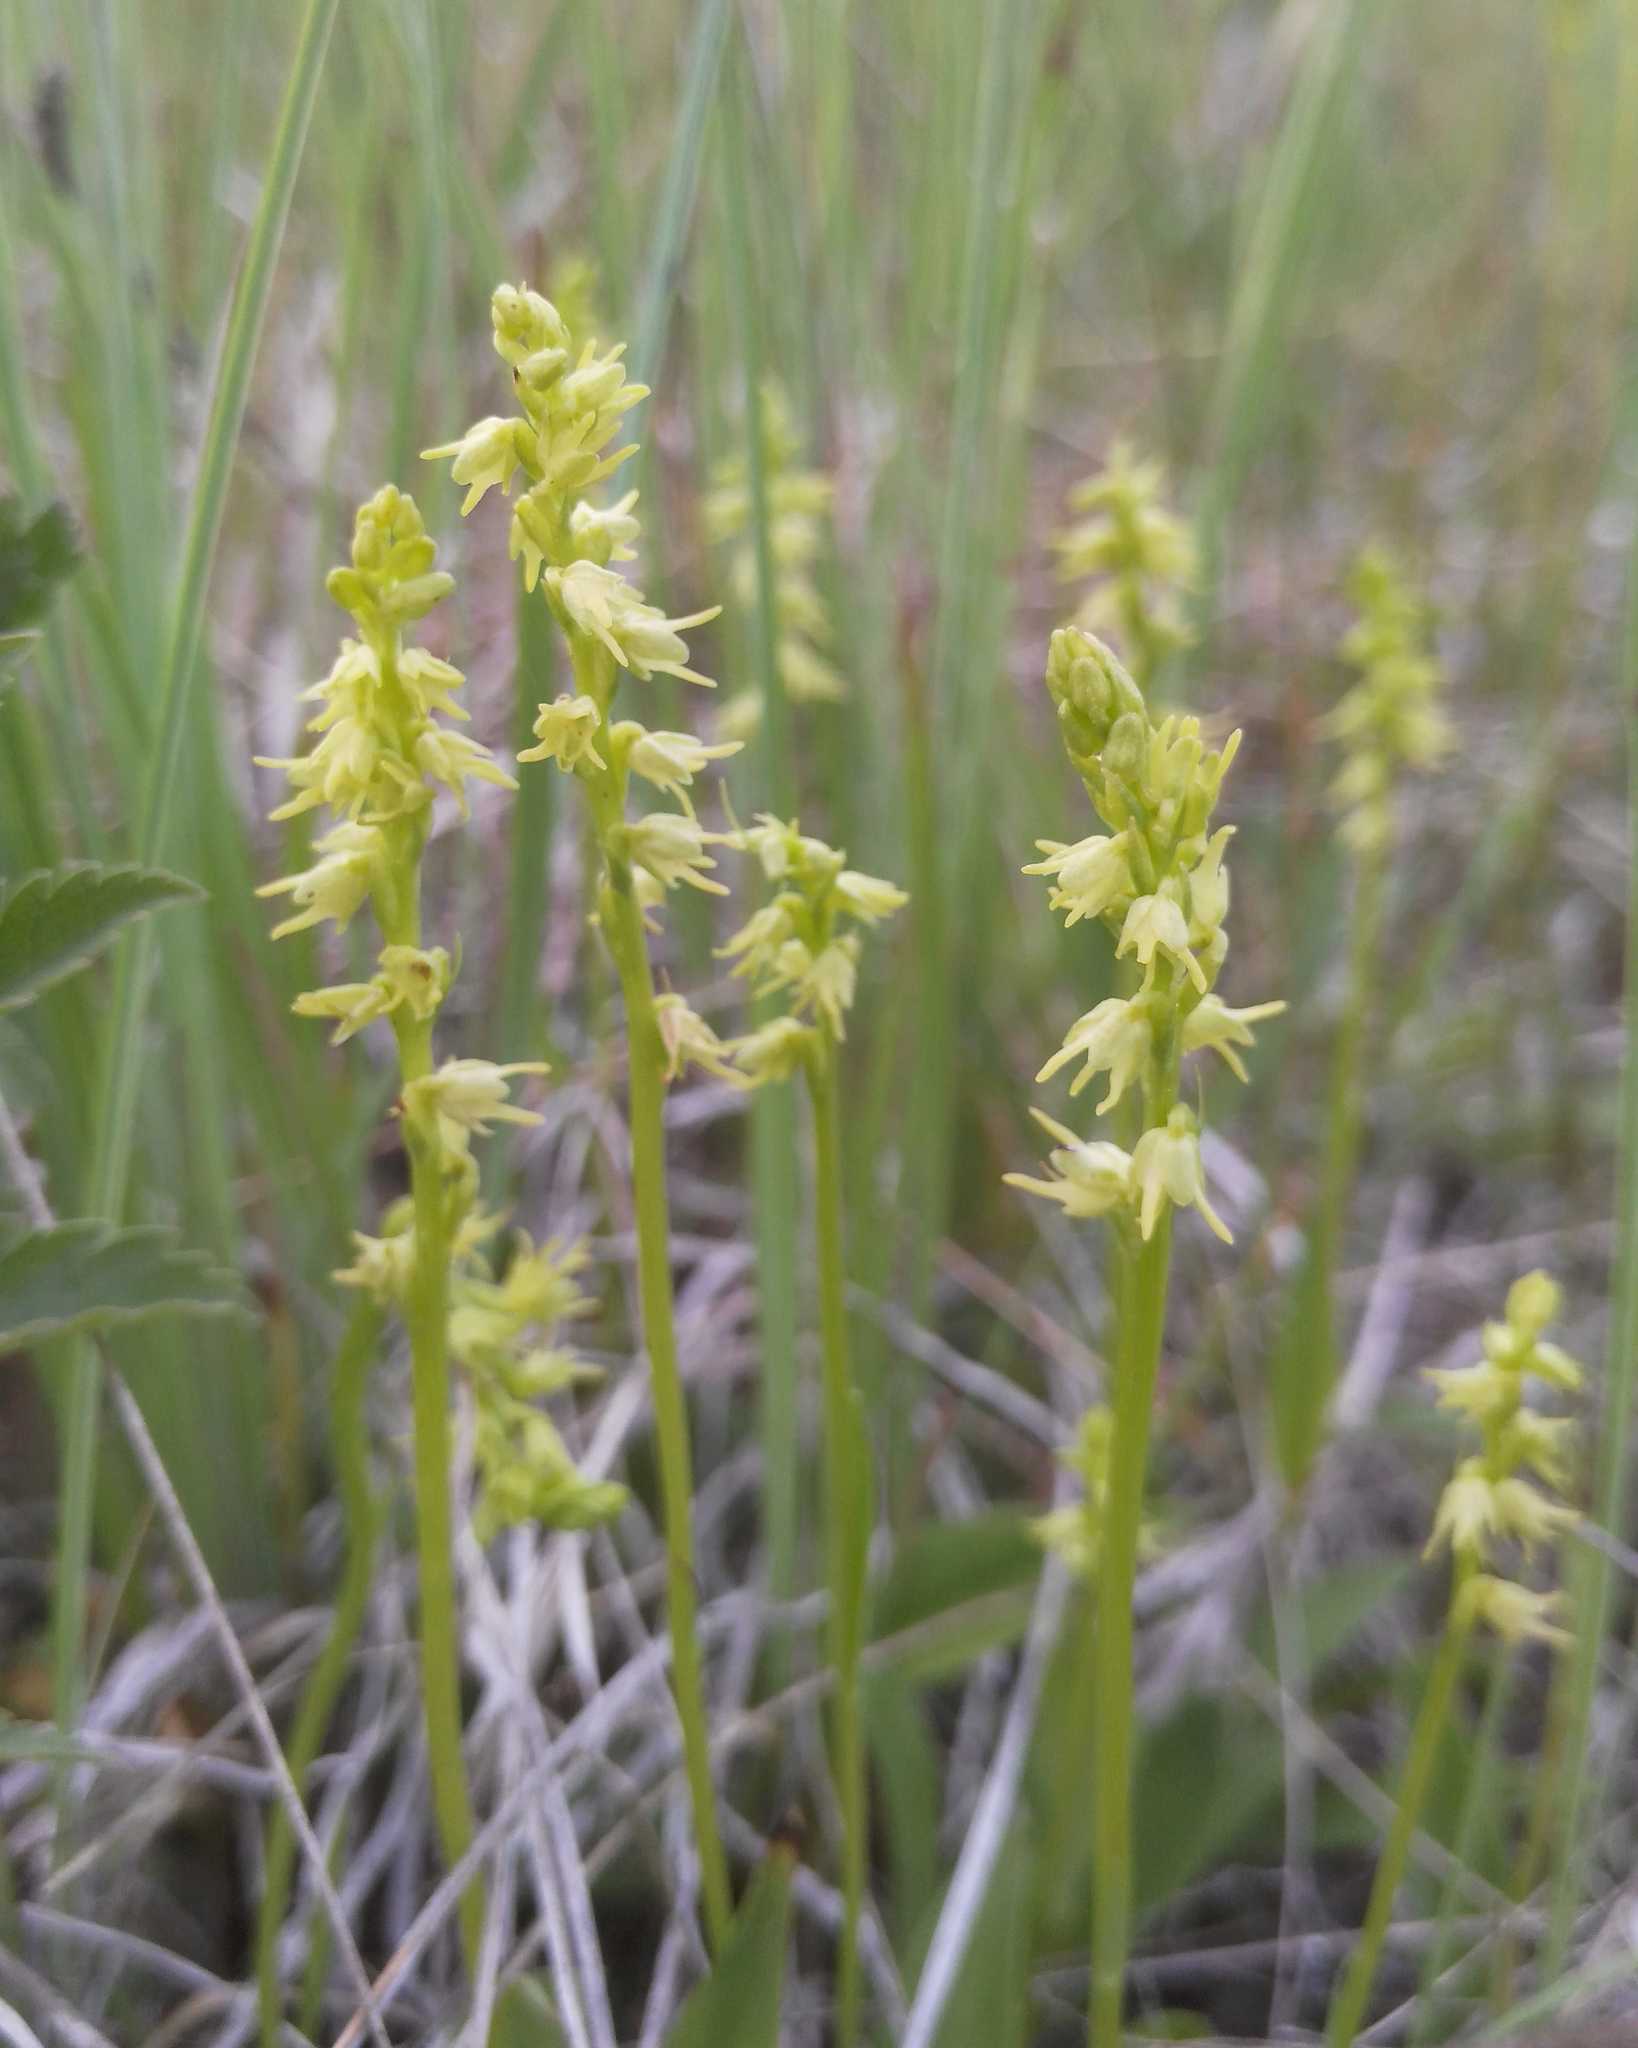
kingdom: Plantae
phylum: Tracheophyta
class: Liliopsida
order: Asparagales
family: Orchidaceae
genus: Herminium
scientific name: Herminium monorchis
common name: Musk orchid
